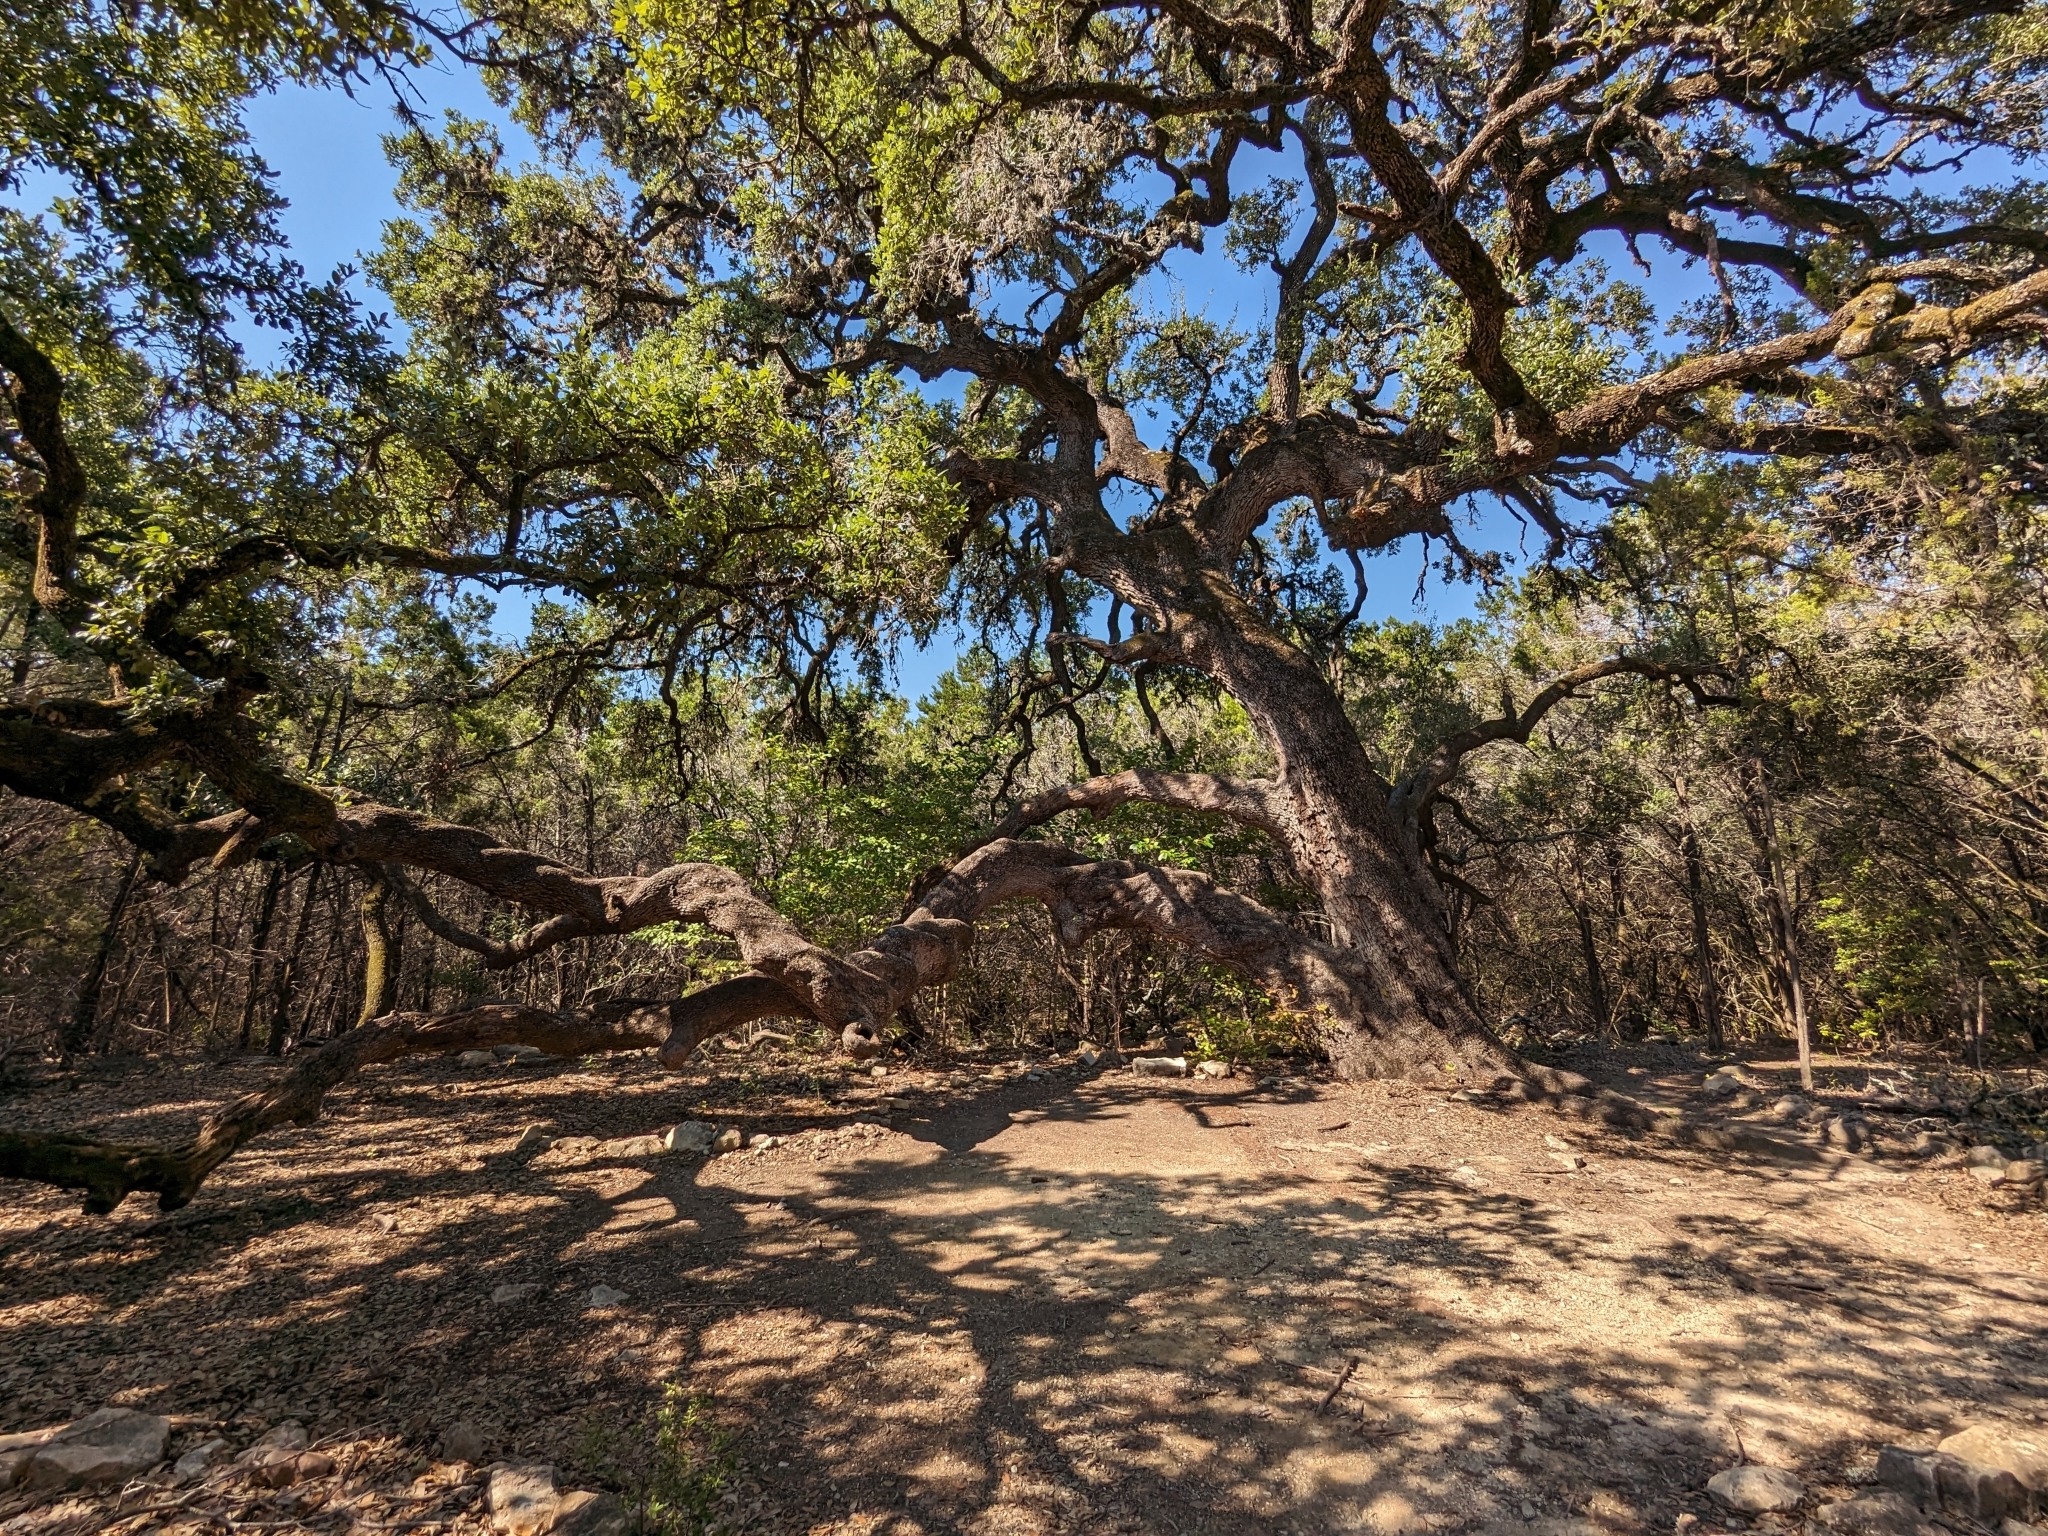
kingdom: Plantae
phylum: Tracheophyta
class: Magnoliopsida
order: Fagales
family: Fagaceae
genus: Quercus
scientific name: Quercus fusiformis
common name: Texas live oak
